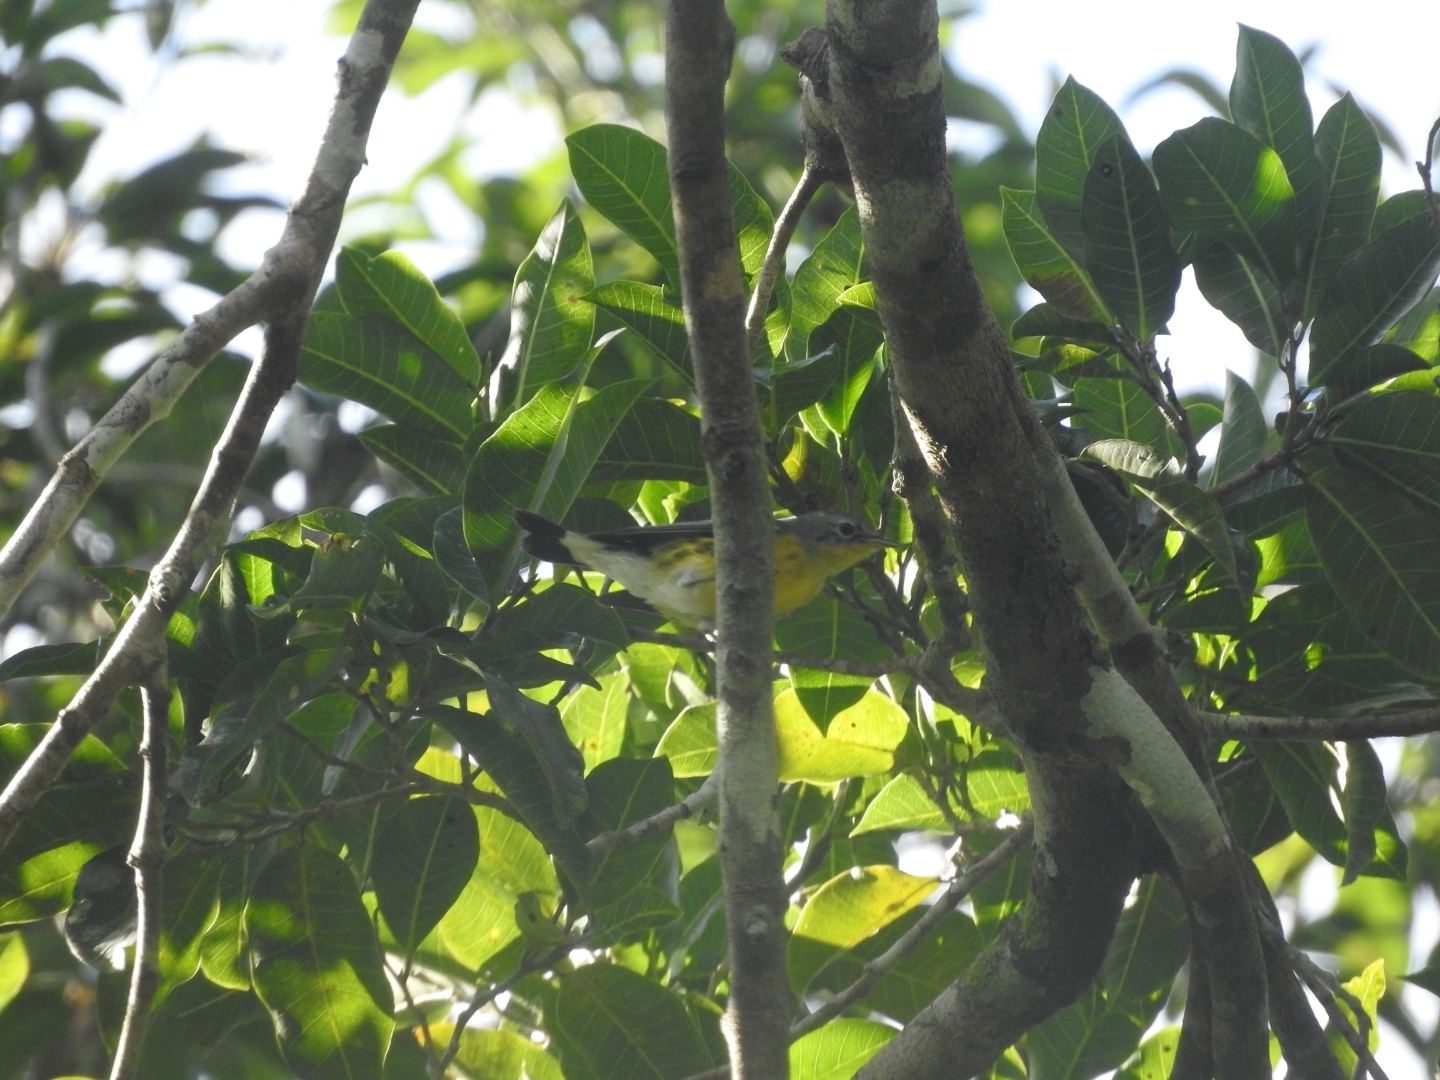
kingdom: Animalia
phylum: Chordata
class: Aves
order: Passeriformes
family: Parulidae
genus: Setophaga
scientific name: Setophaga magnolia
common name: Magnolia warbler
